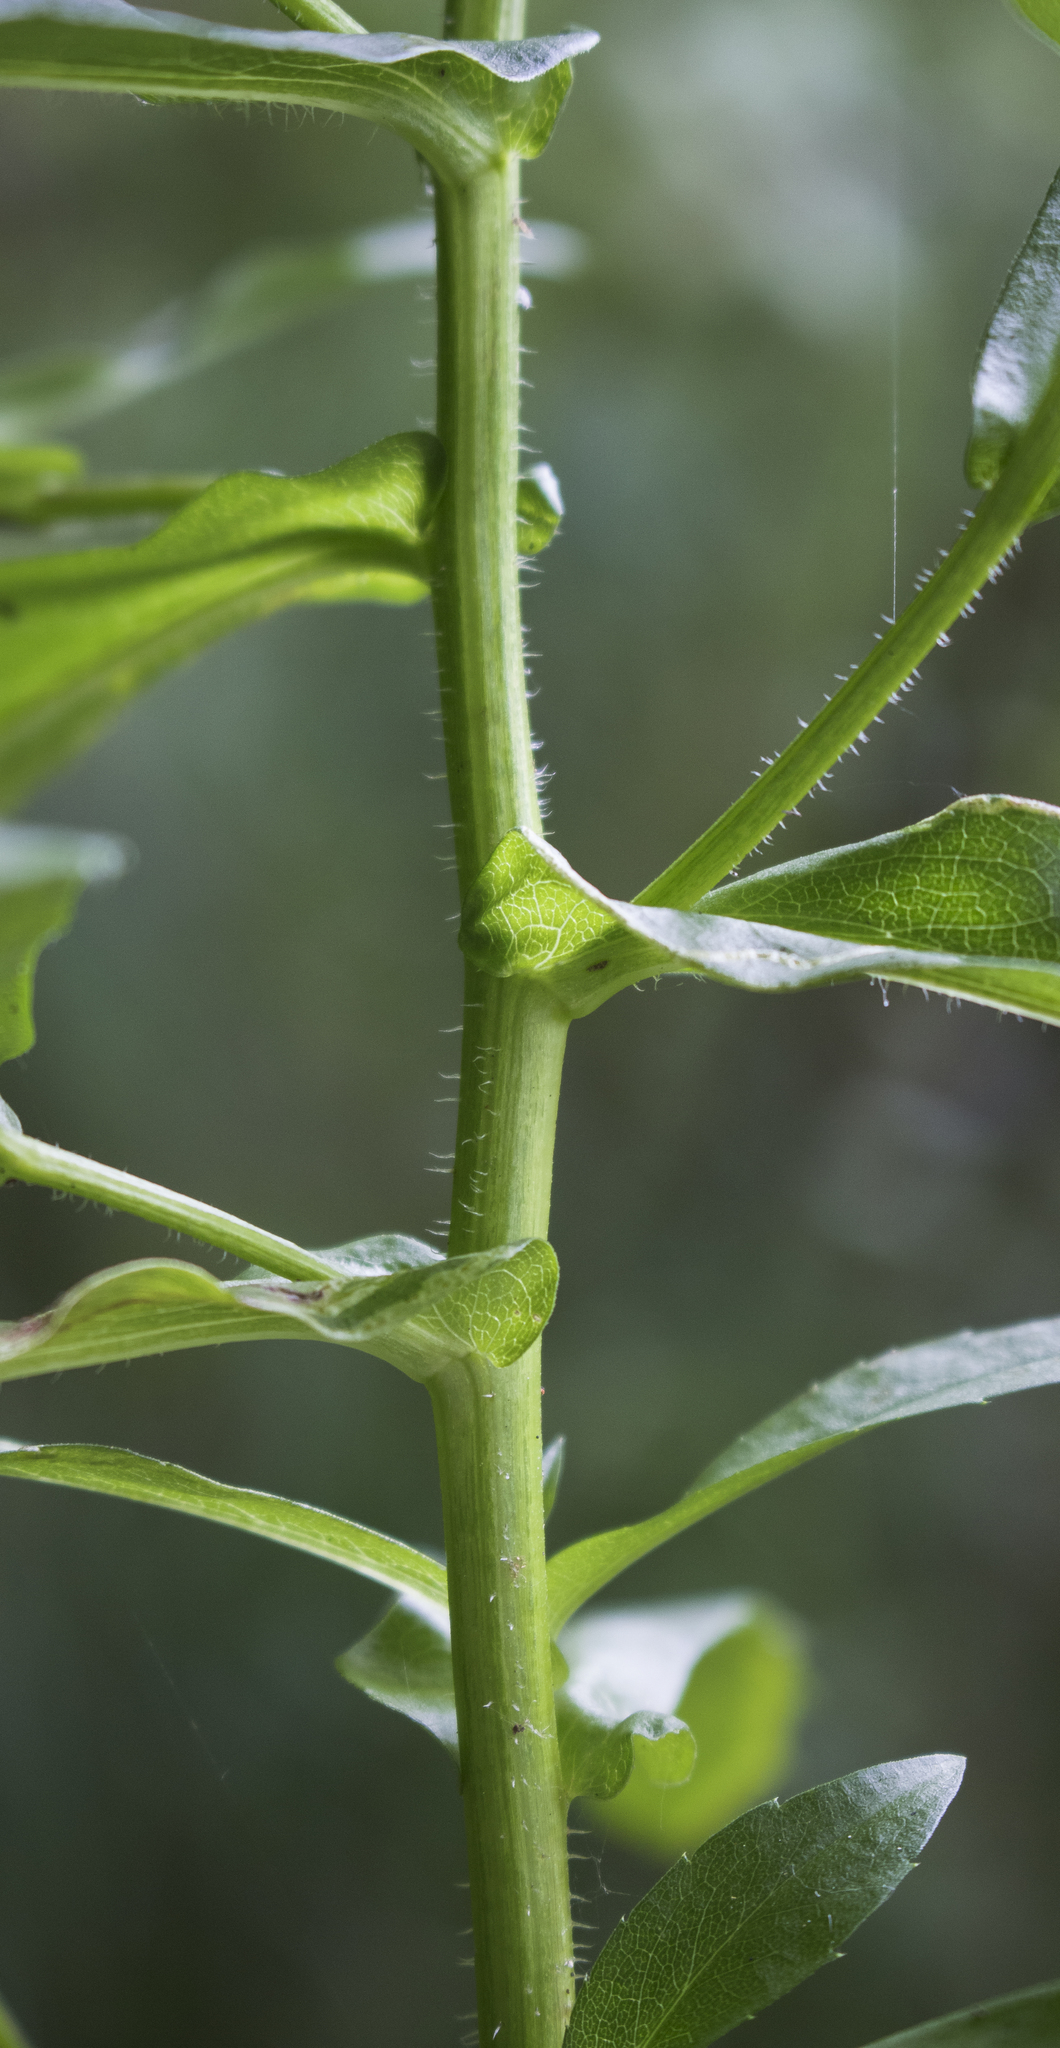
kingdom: Plantae
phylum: Tracheophyta
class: Magnoliopsida
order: Asterales
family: Asteraceae
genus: Symphyotrichum
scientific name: Symphyotrichum puniceum
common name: Bog aster
